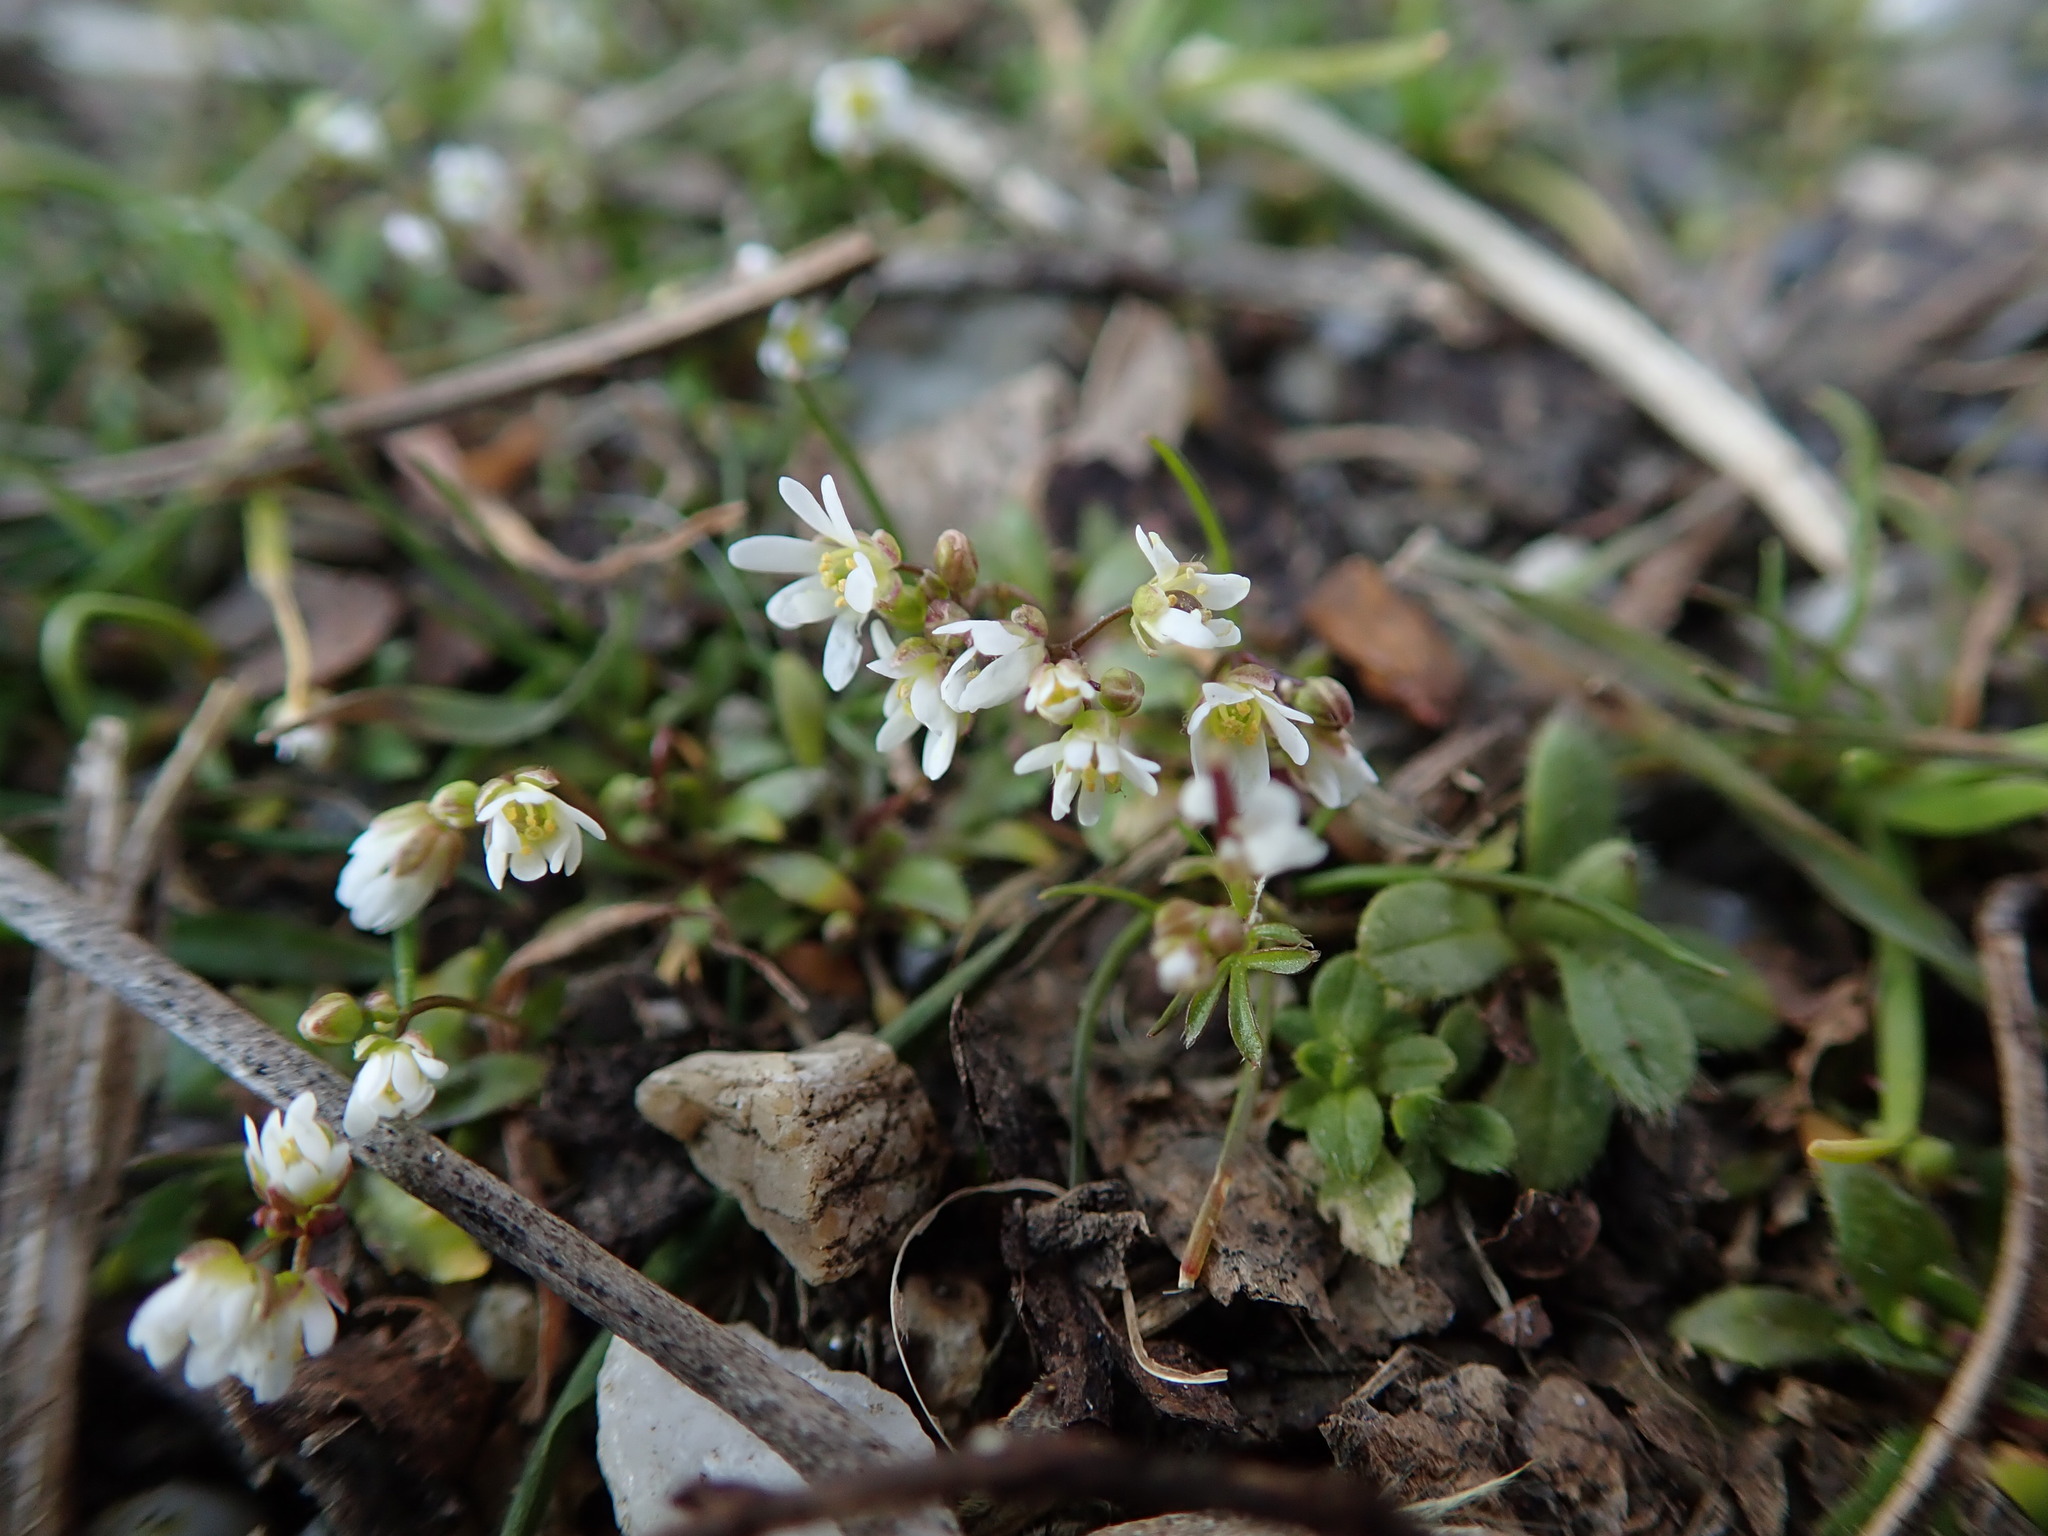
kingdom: Plantae
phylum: Tracheophyta
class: Magnoliopsida
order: Brassicales
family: Brassicaceae
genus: Draba
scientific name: Draba verna
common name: Spring draba
